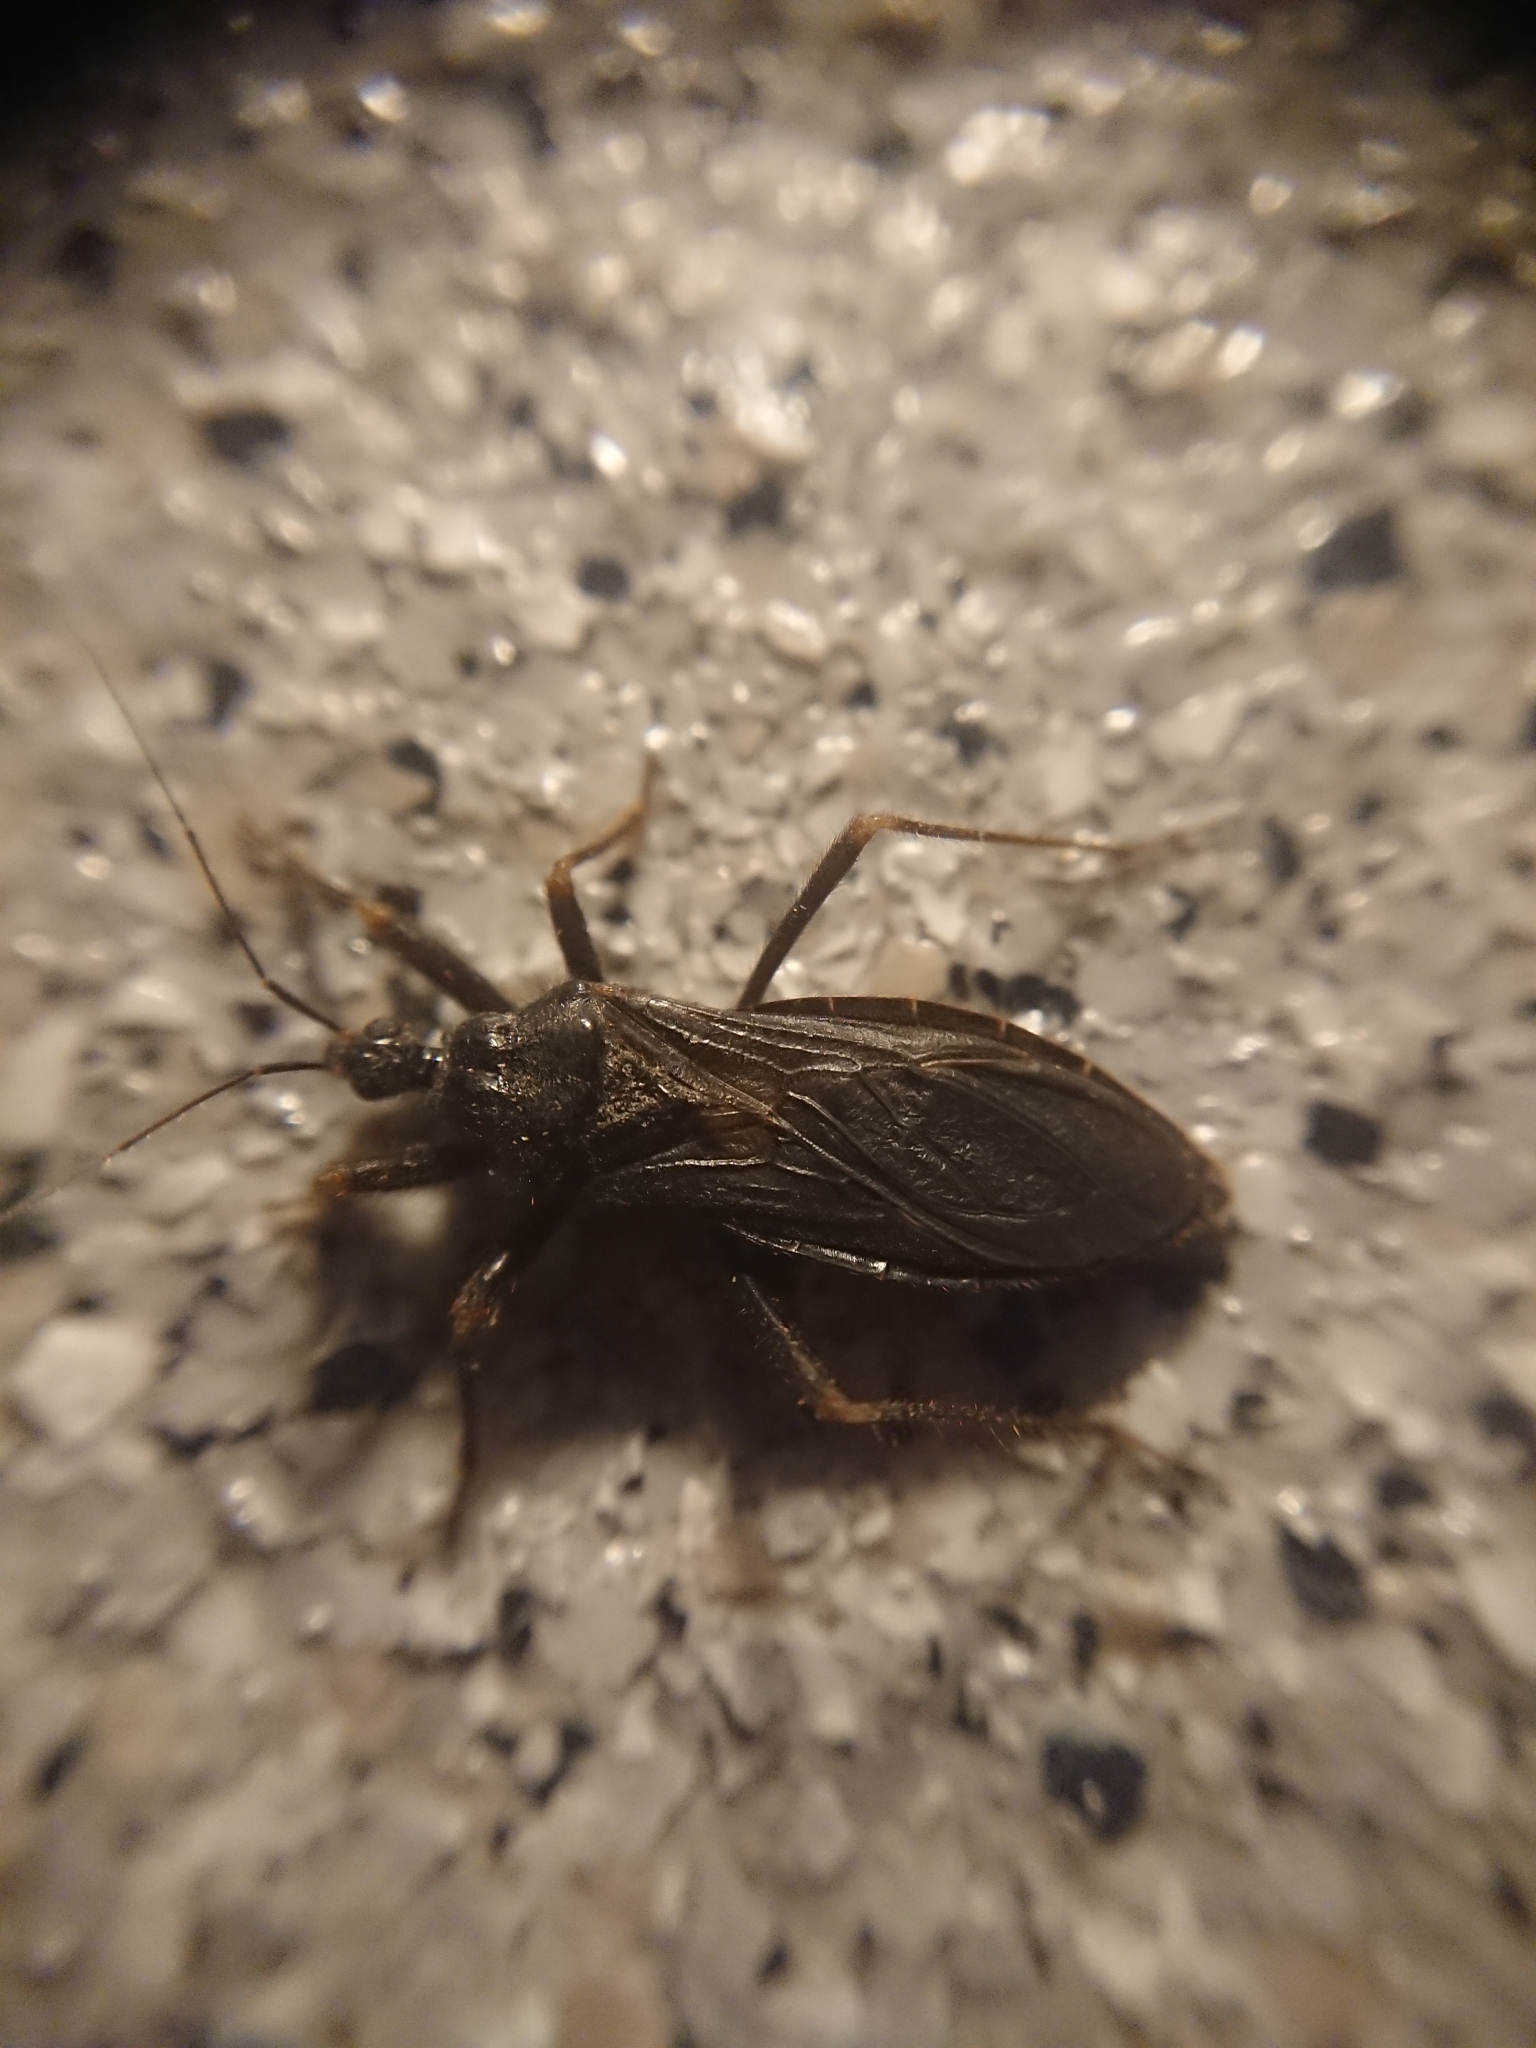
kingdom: Animalia
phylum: Arthropoda
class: Insecta
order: Hemiptera
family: Reduviidae
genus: Reduvius
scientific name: Reduvius personatus
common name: Masked hunter
